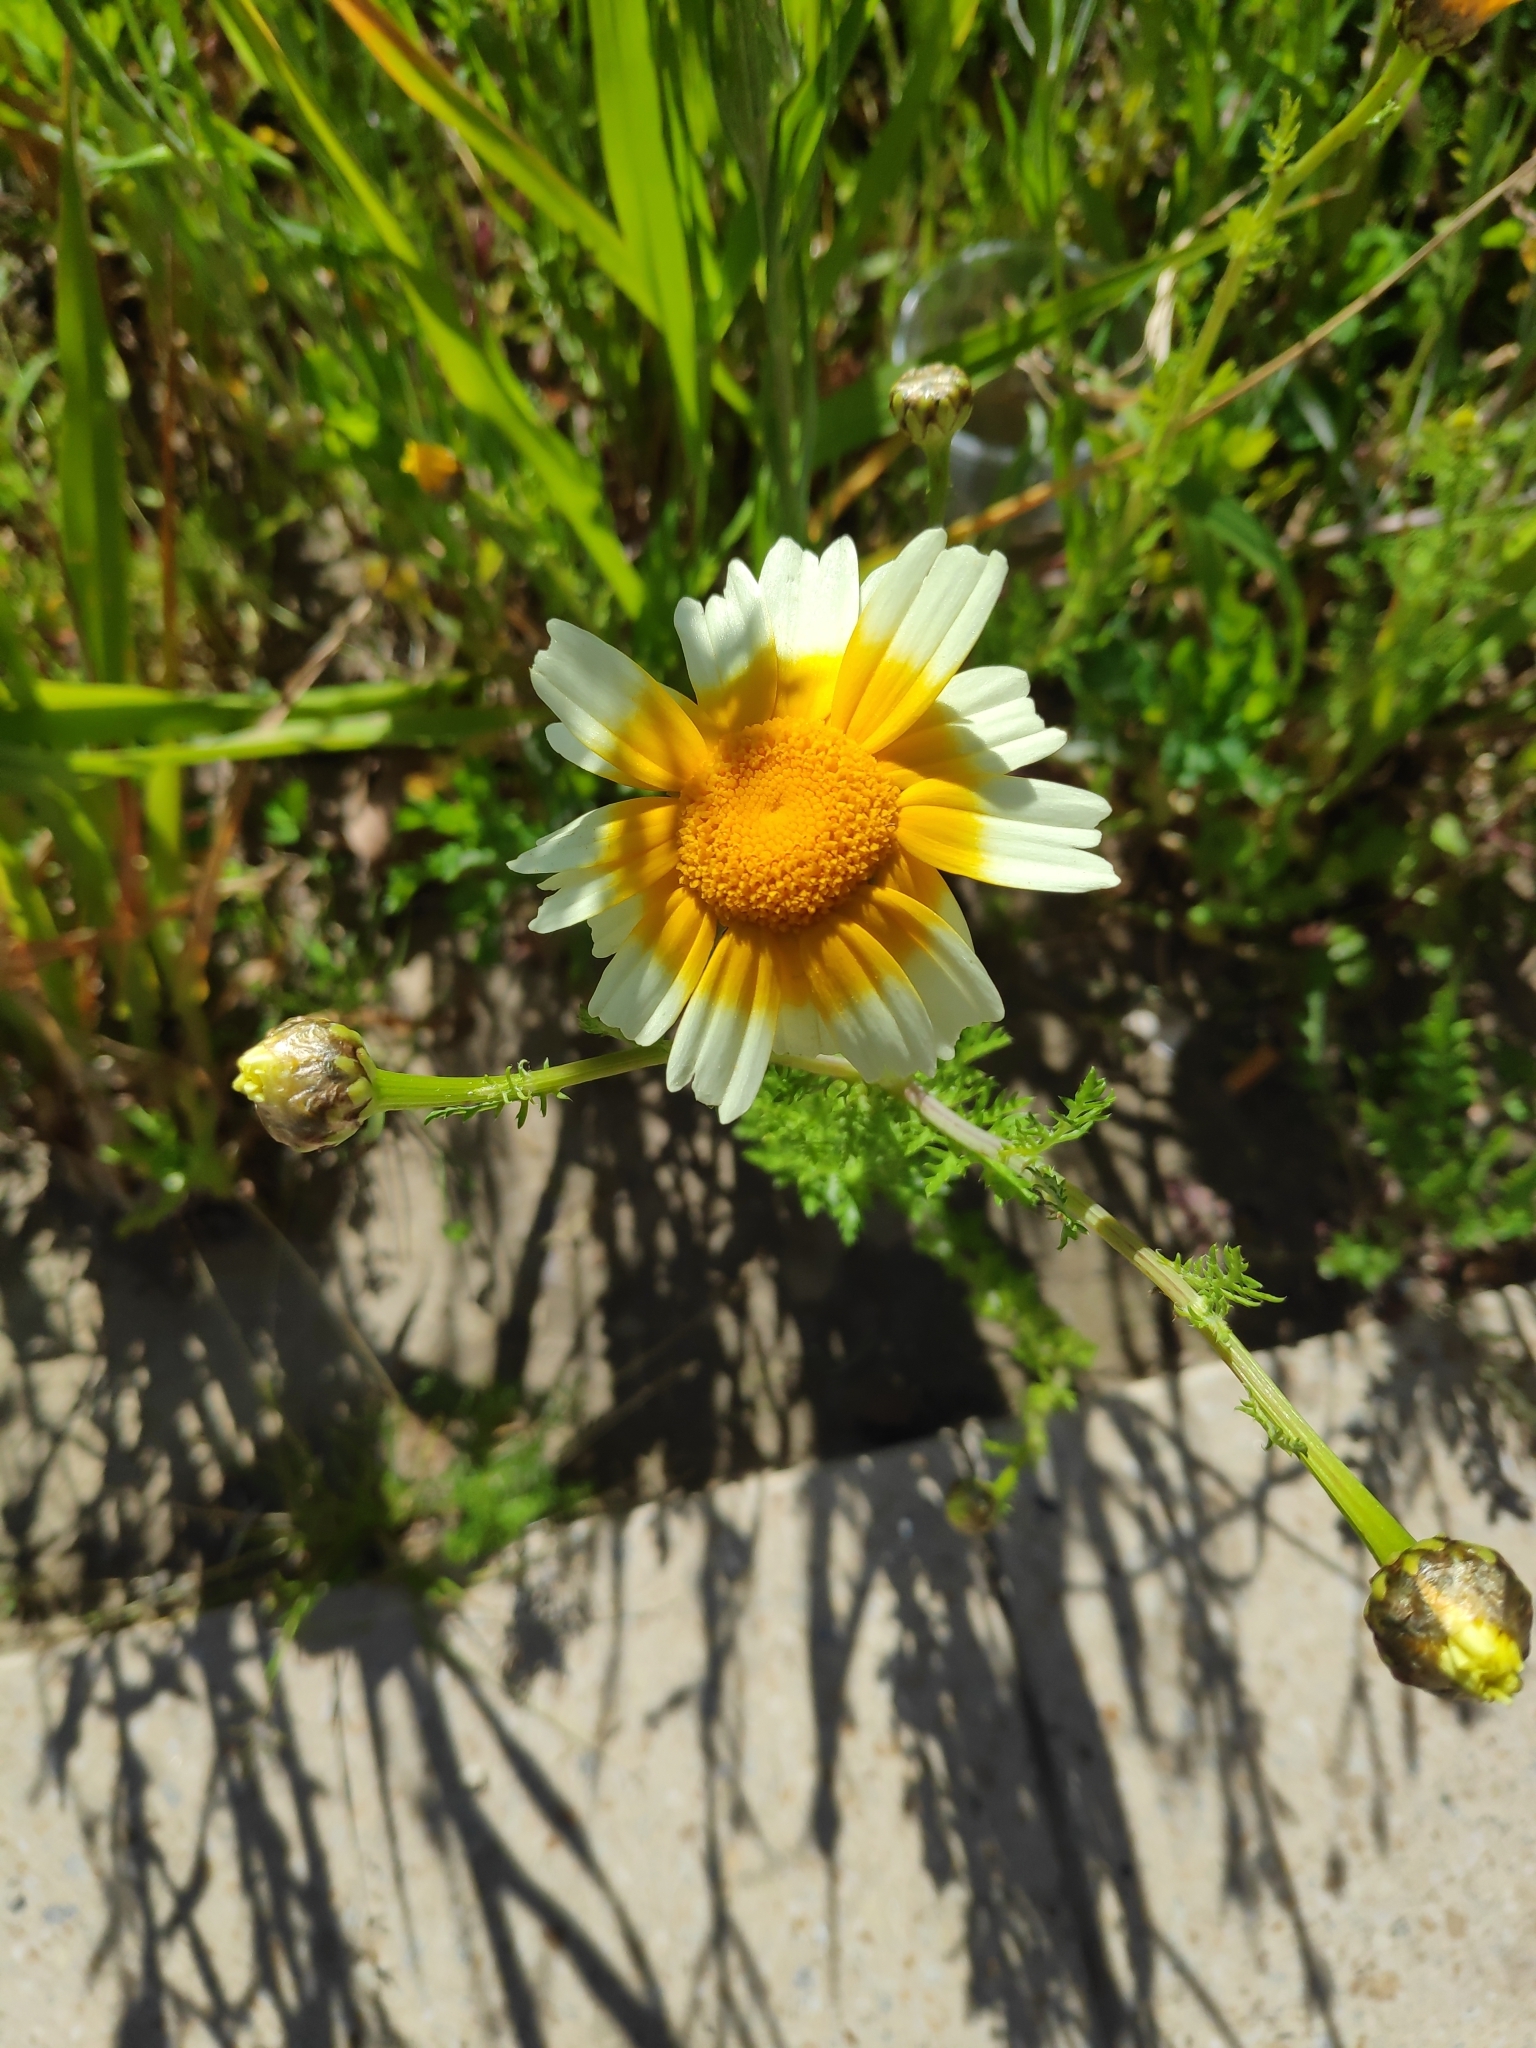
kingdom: Plantae
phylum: Tracheophyta
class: Magnoliopsida
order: Asterales
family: Asteraceae
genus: Glebionis
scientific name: Glebionis coronaria
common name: Crowndaisy
